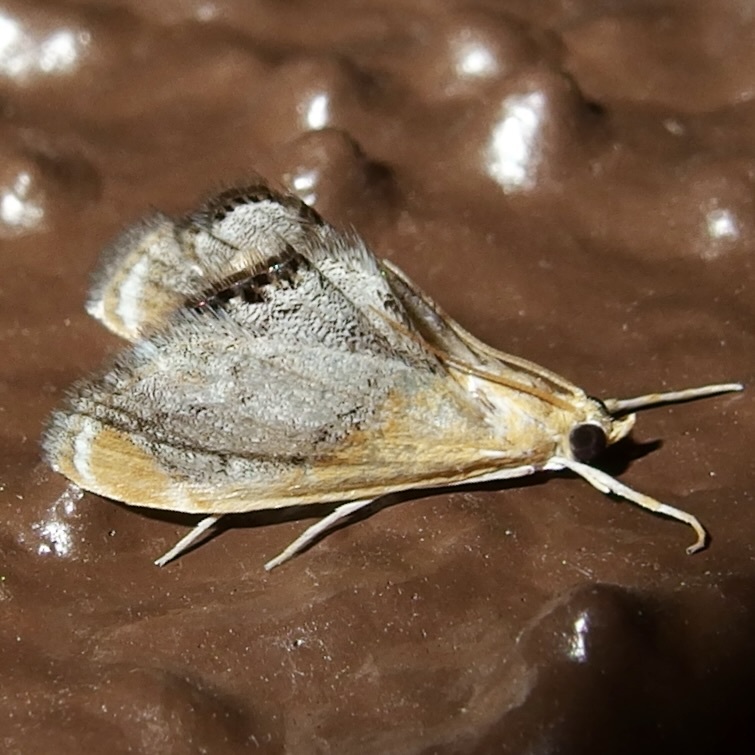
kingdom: Animalia
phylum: Arthropoda
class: Insecta
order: Lepidoptera
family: Crambidae
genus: Chalcoela
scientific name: Chalcoela iphitalis
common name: Sooty-winged chalcoela moth
